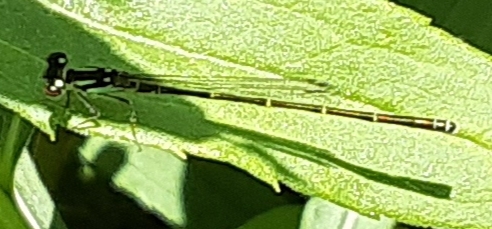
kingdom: Animalia
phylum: Arthropoda
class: Insecta
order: Odonata
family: Coenagrionidae
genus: Ischnura
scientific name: Ischnura posita
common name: Fragile forktail
